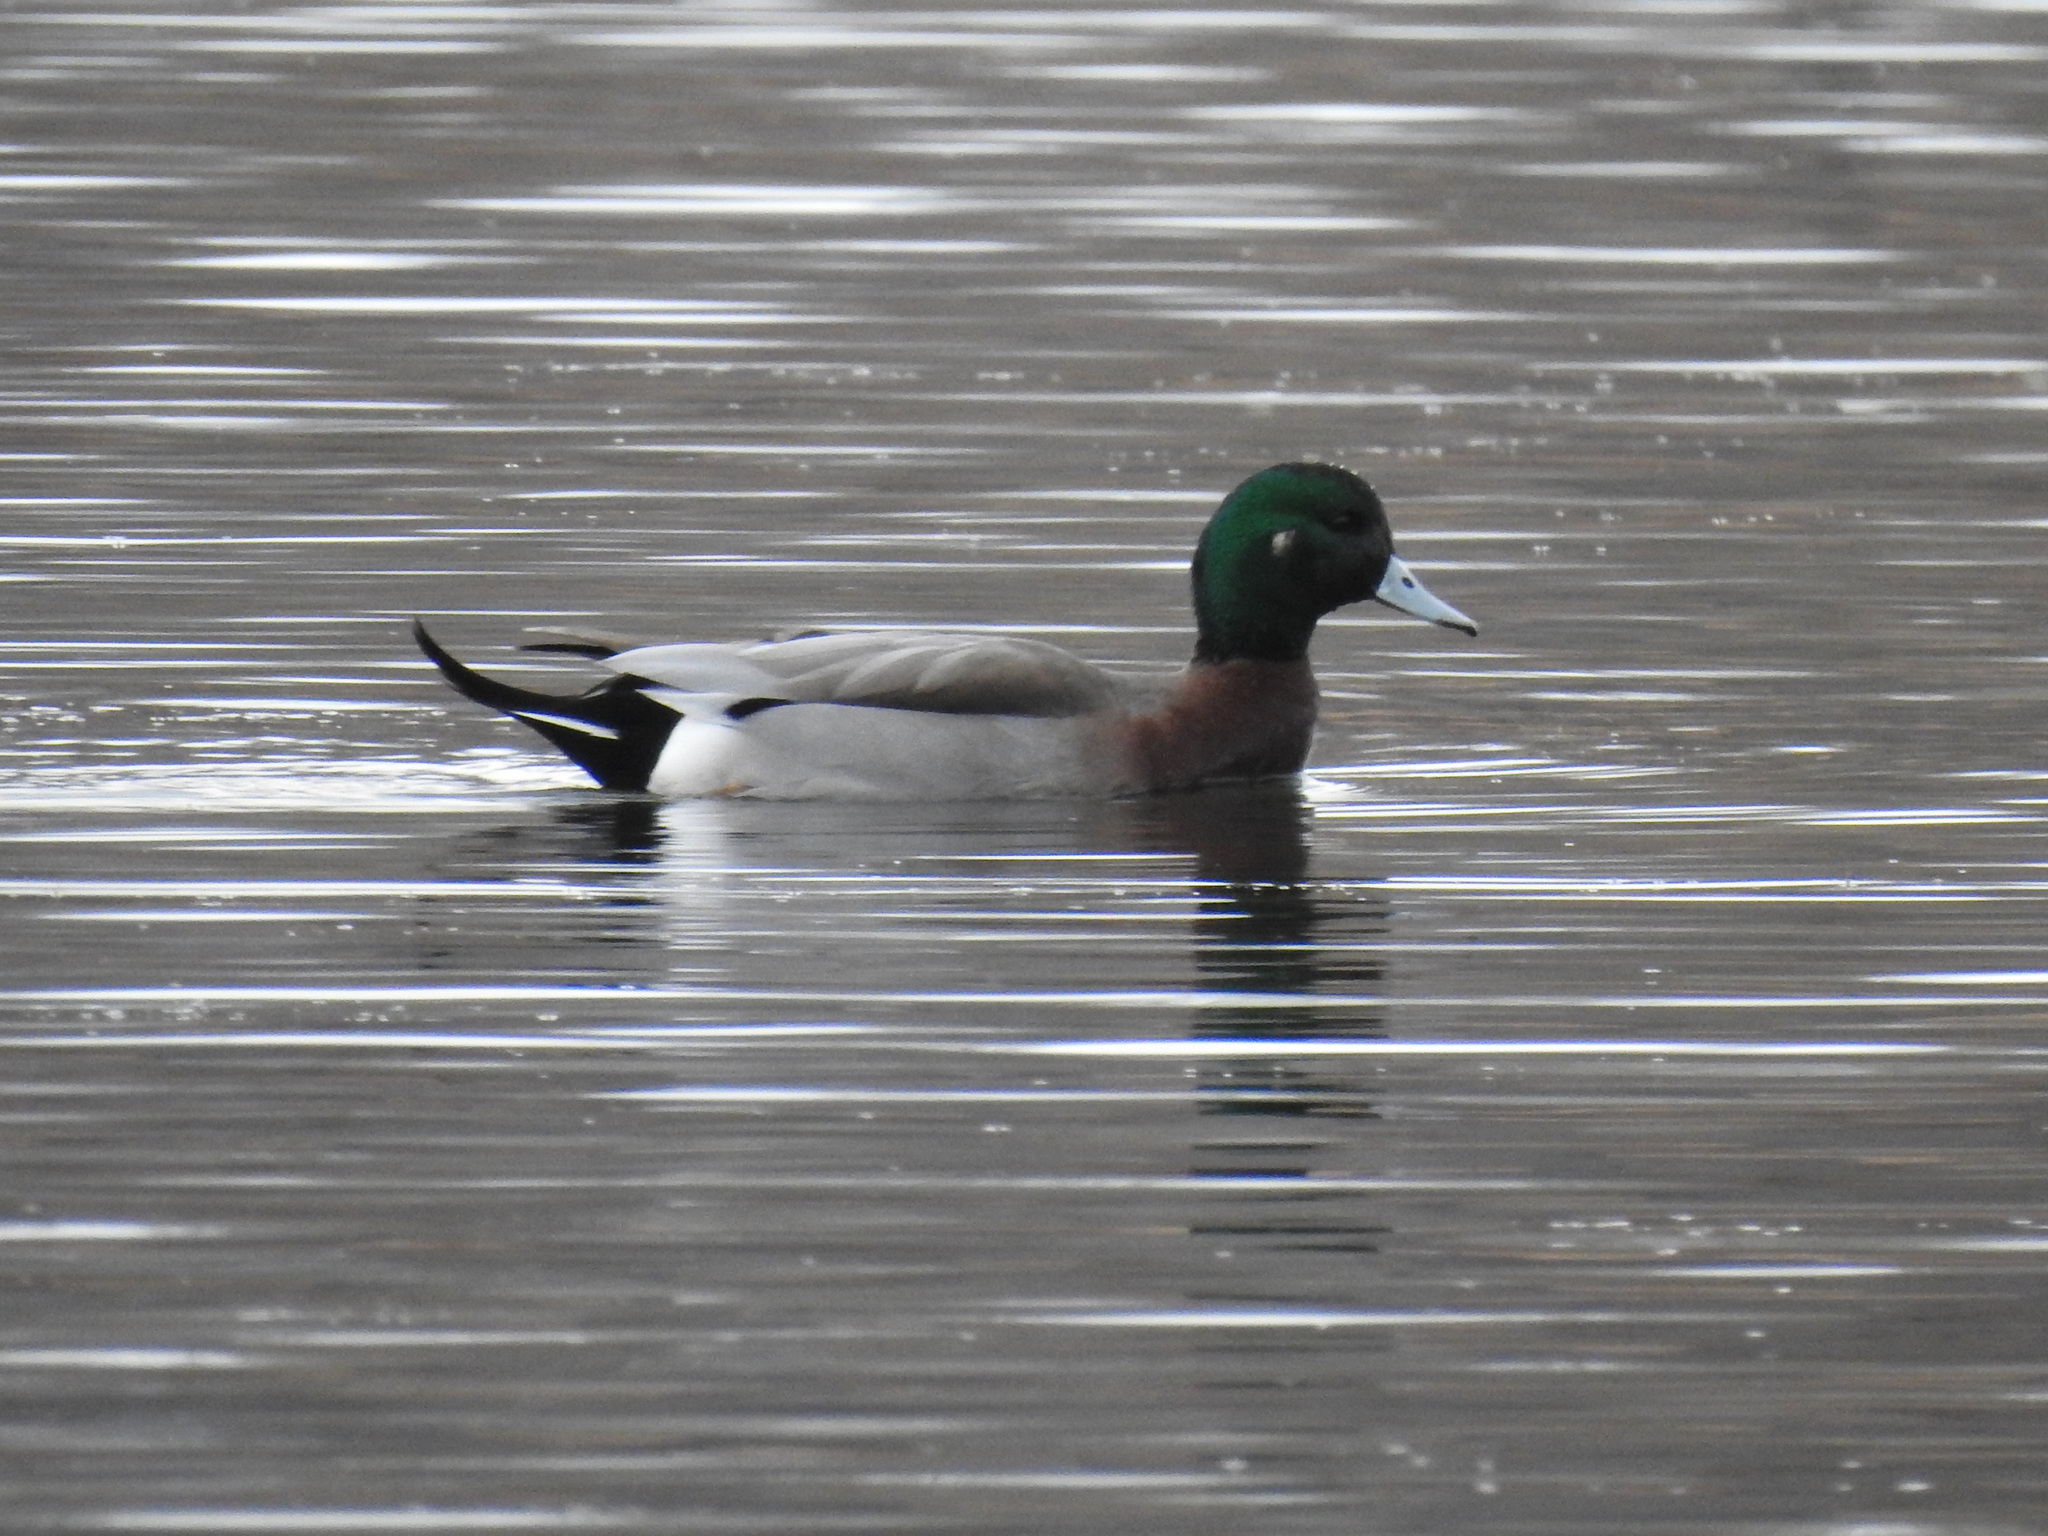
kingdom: Animalia
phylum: Chordata
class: Aves
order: Anseriformes
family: Anatidae
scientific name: Anatidae
